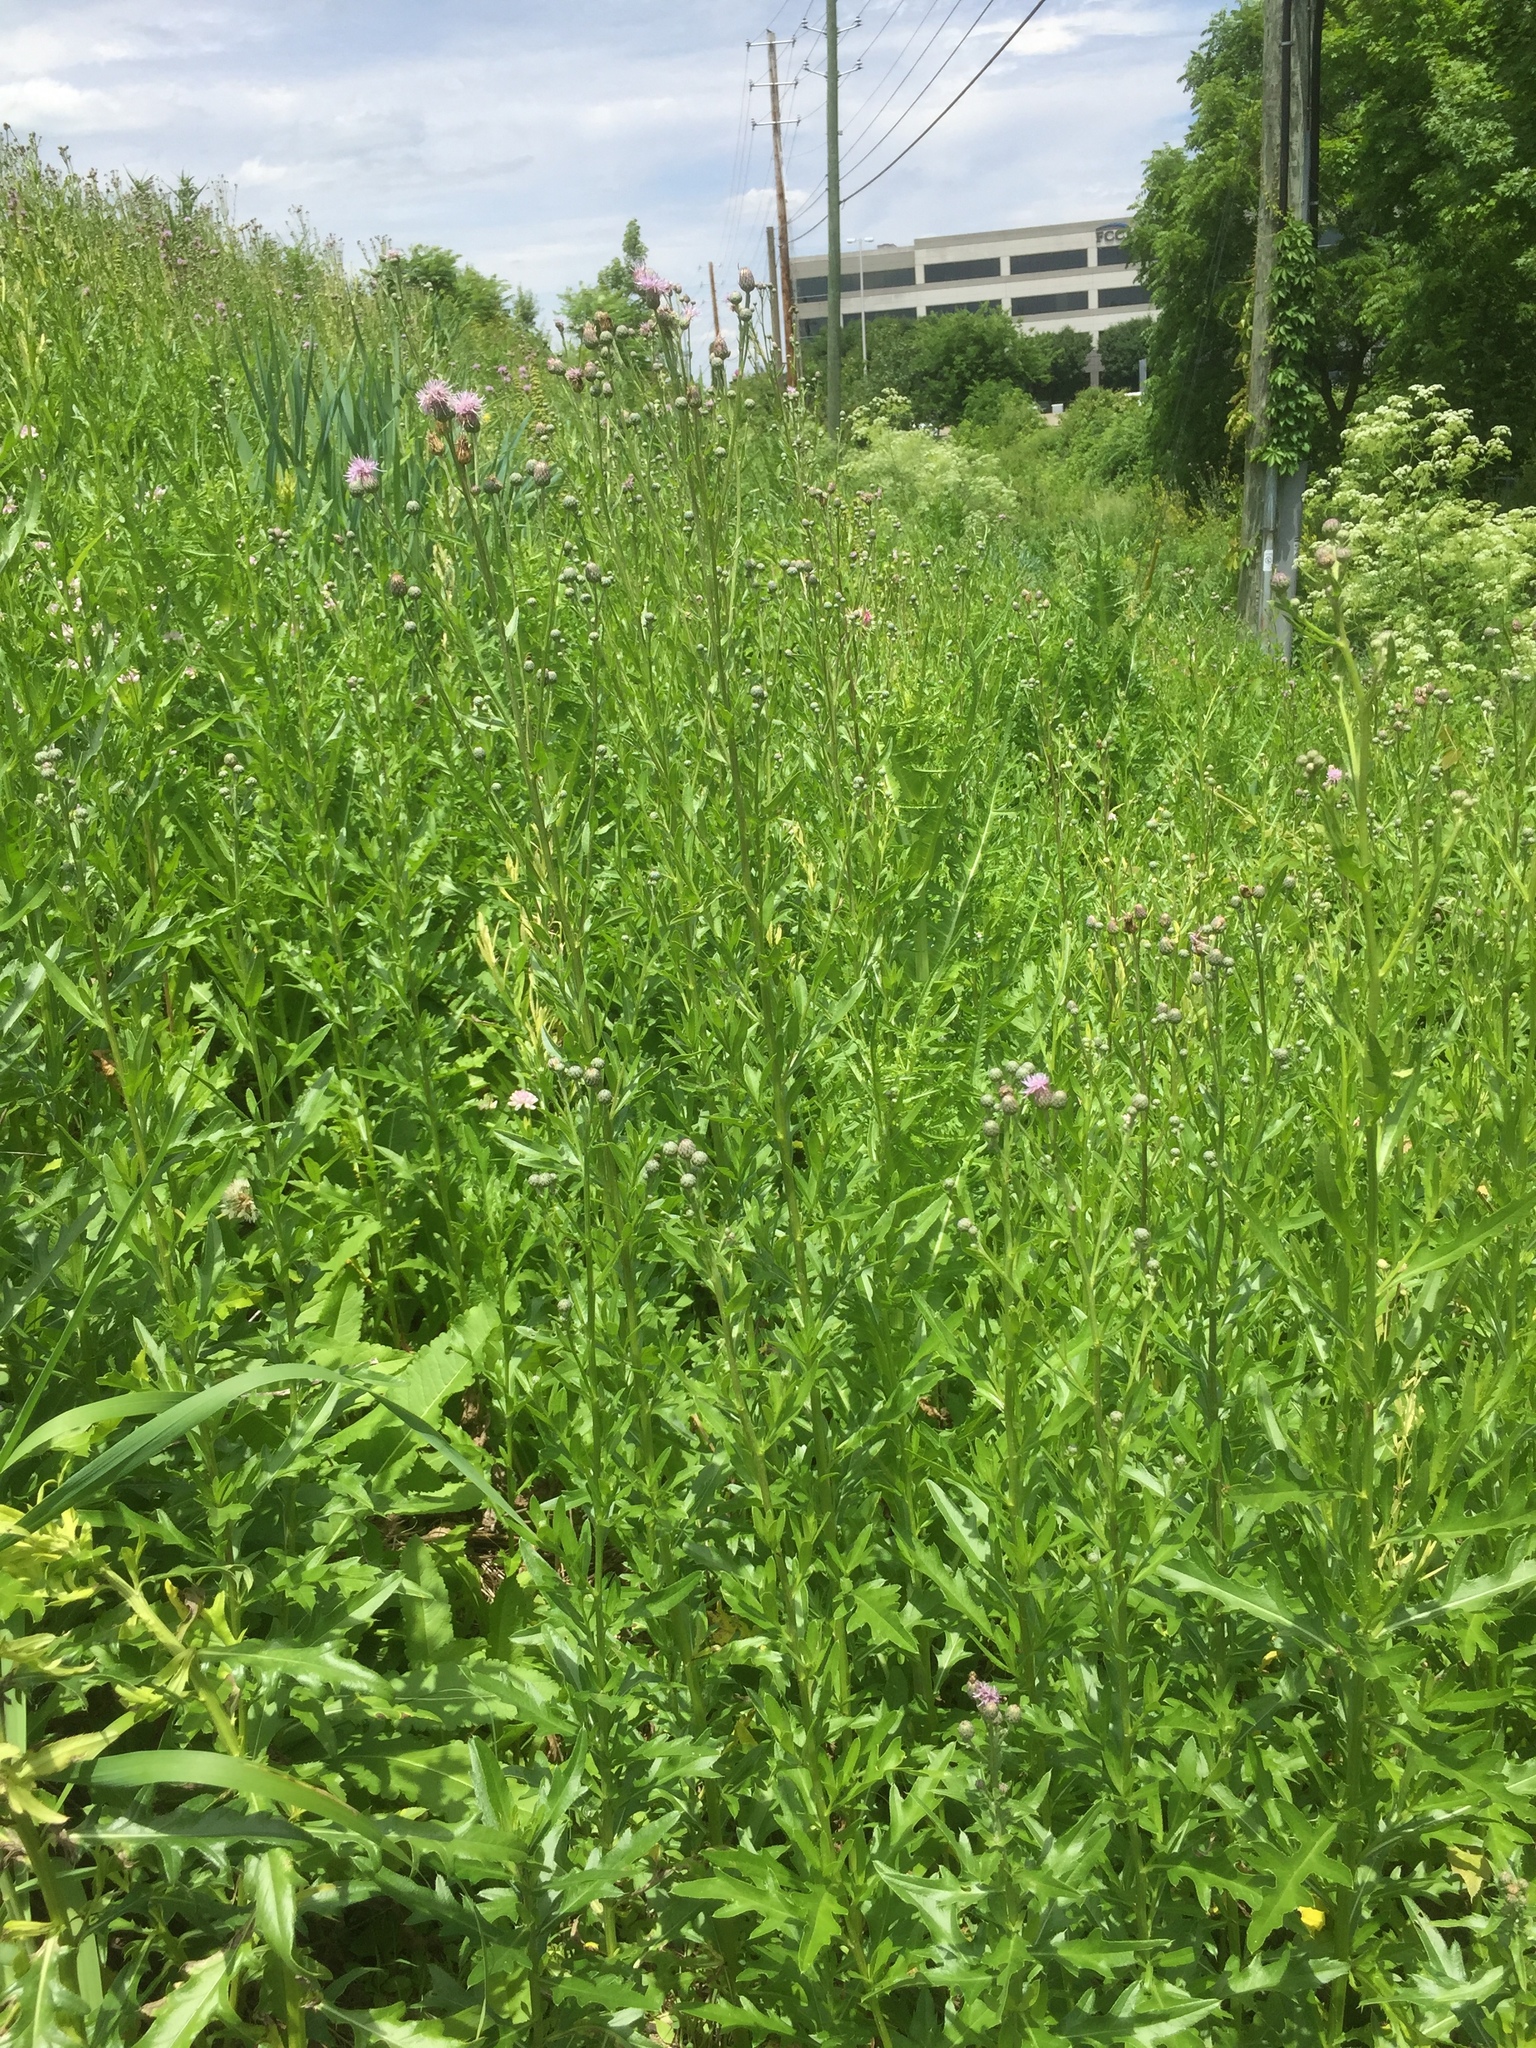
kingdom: Plantae
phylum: Tracheophyta
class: Magnoliopsida
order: Asterales
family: Asteraceae
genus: Cirsium
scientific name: Cirsium arvense
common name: Creeping thistle
